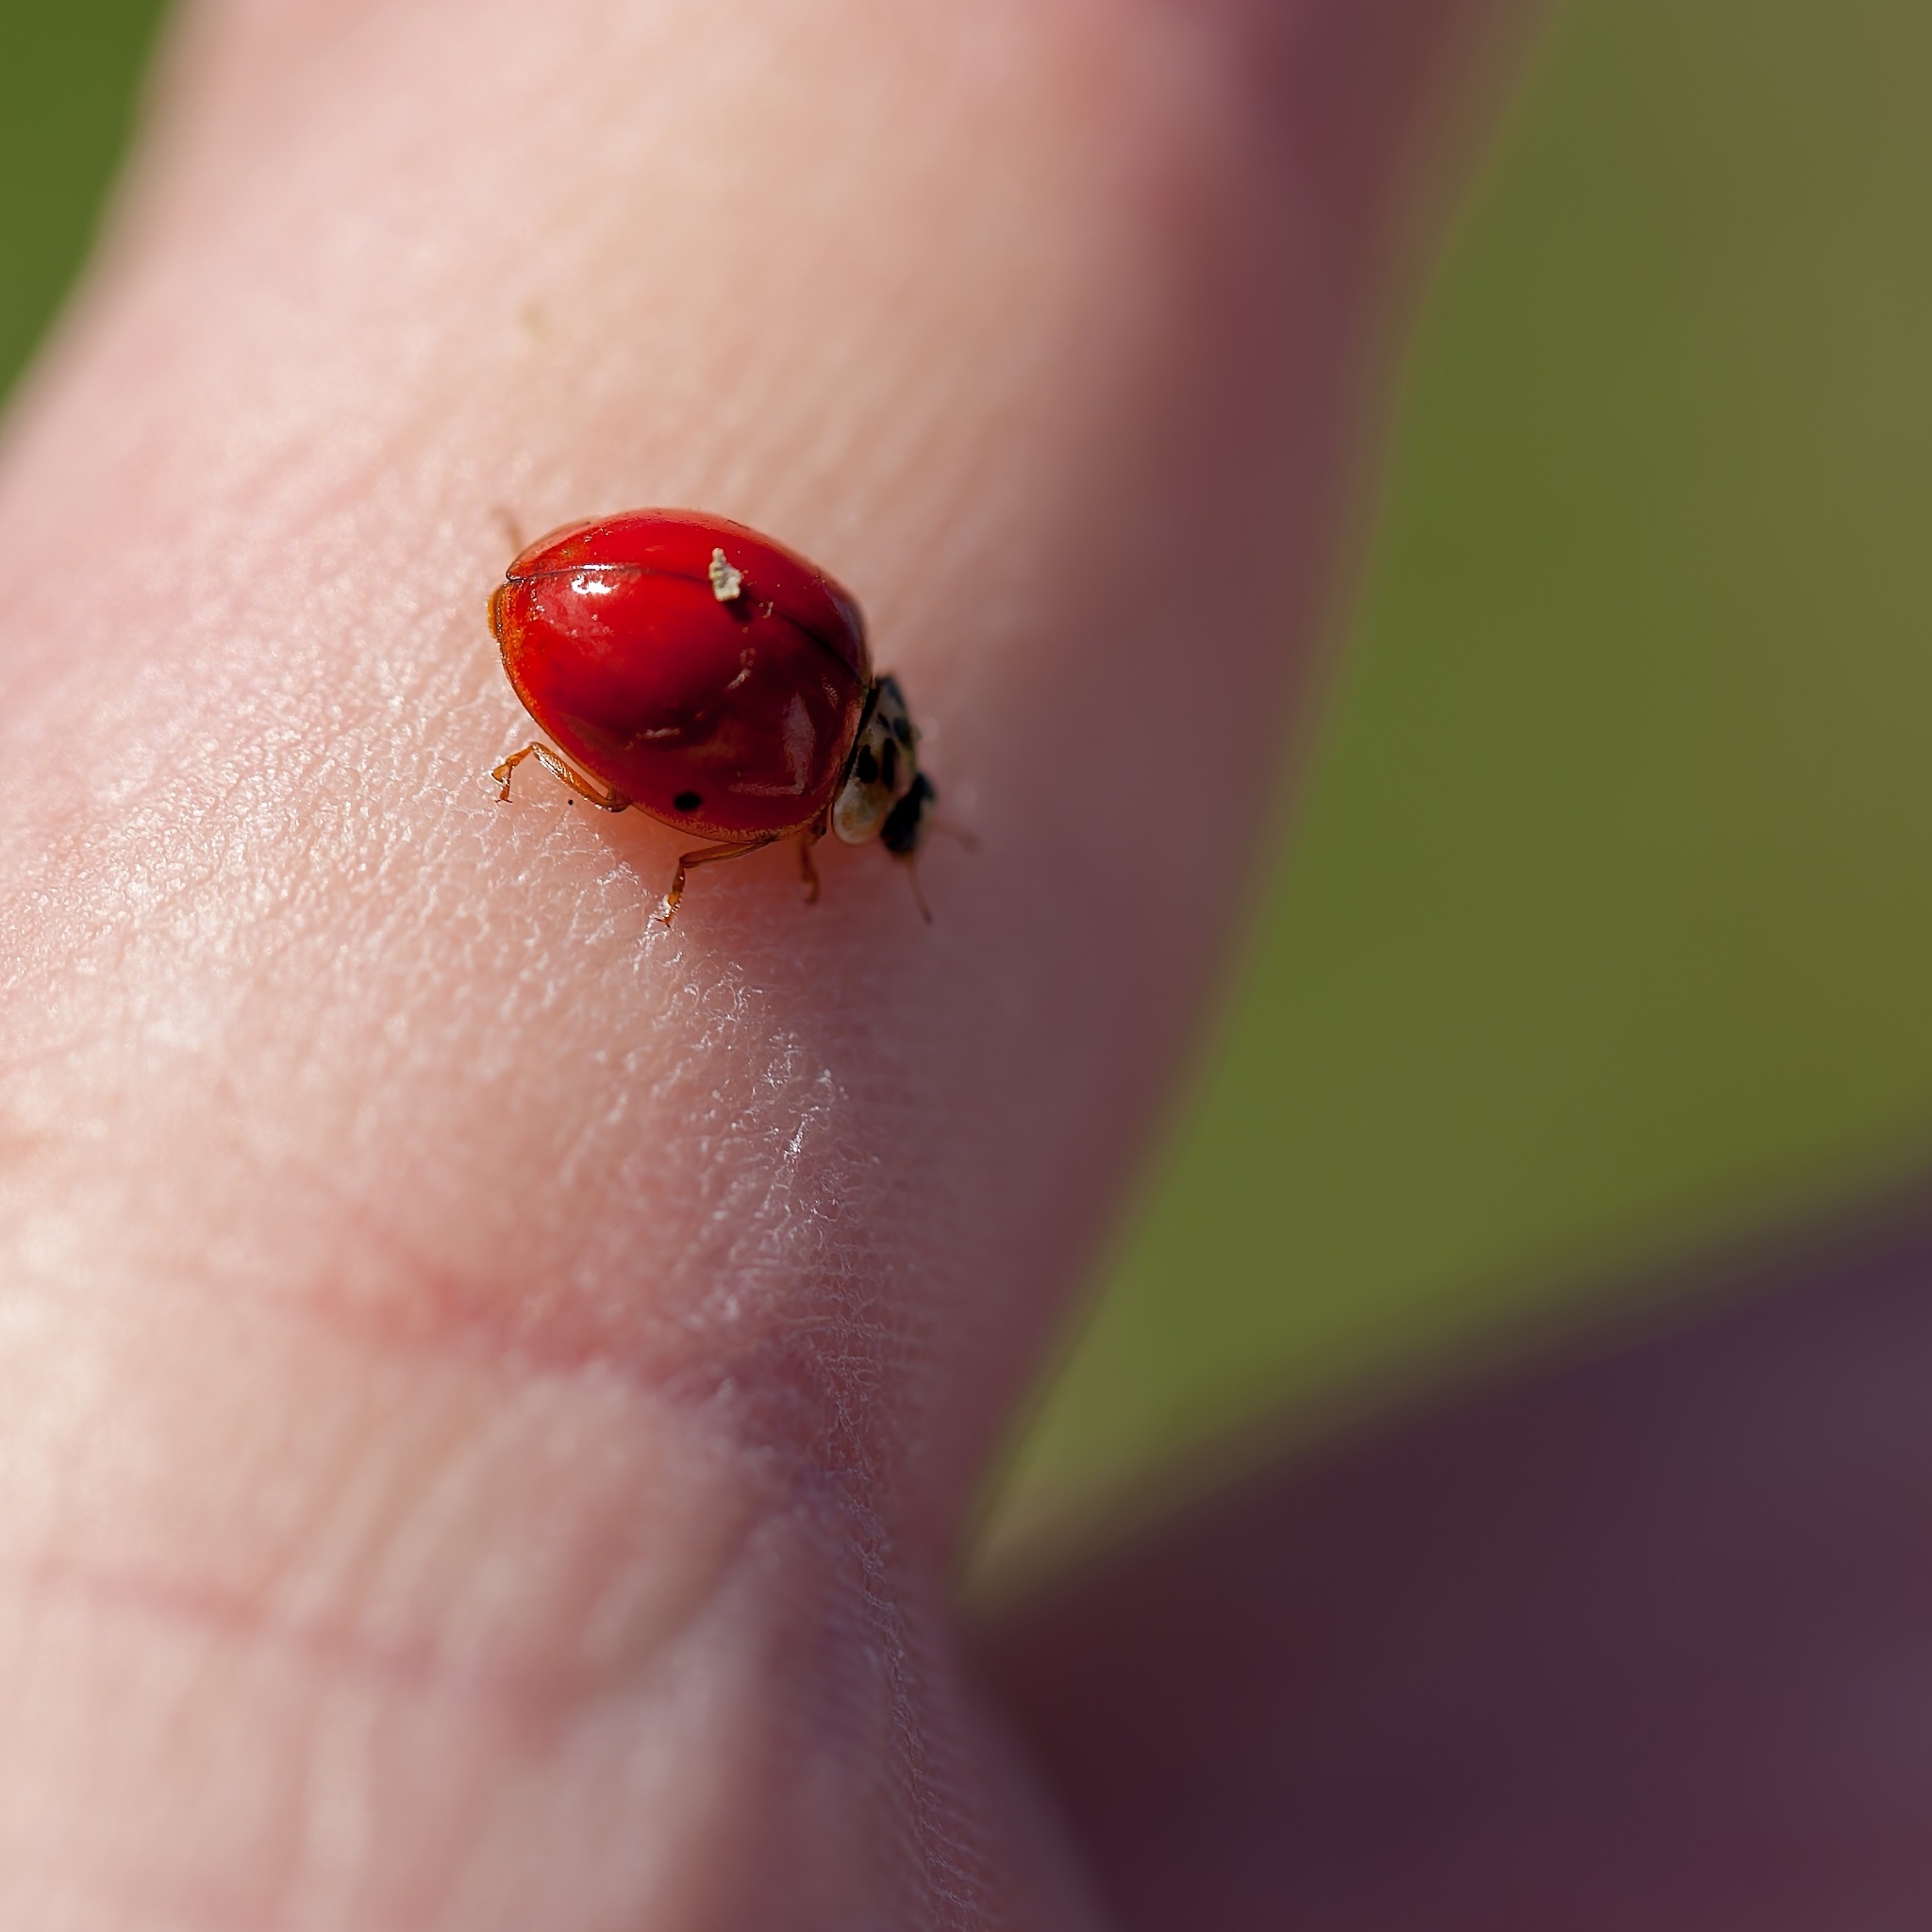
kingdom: Animalia
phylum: Arthropoda
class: Insecta
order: Coleoptera
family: Coccinellidae
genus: Harmonia
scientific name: Harmonia axyridis
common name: Harlequin ladybird
